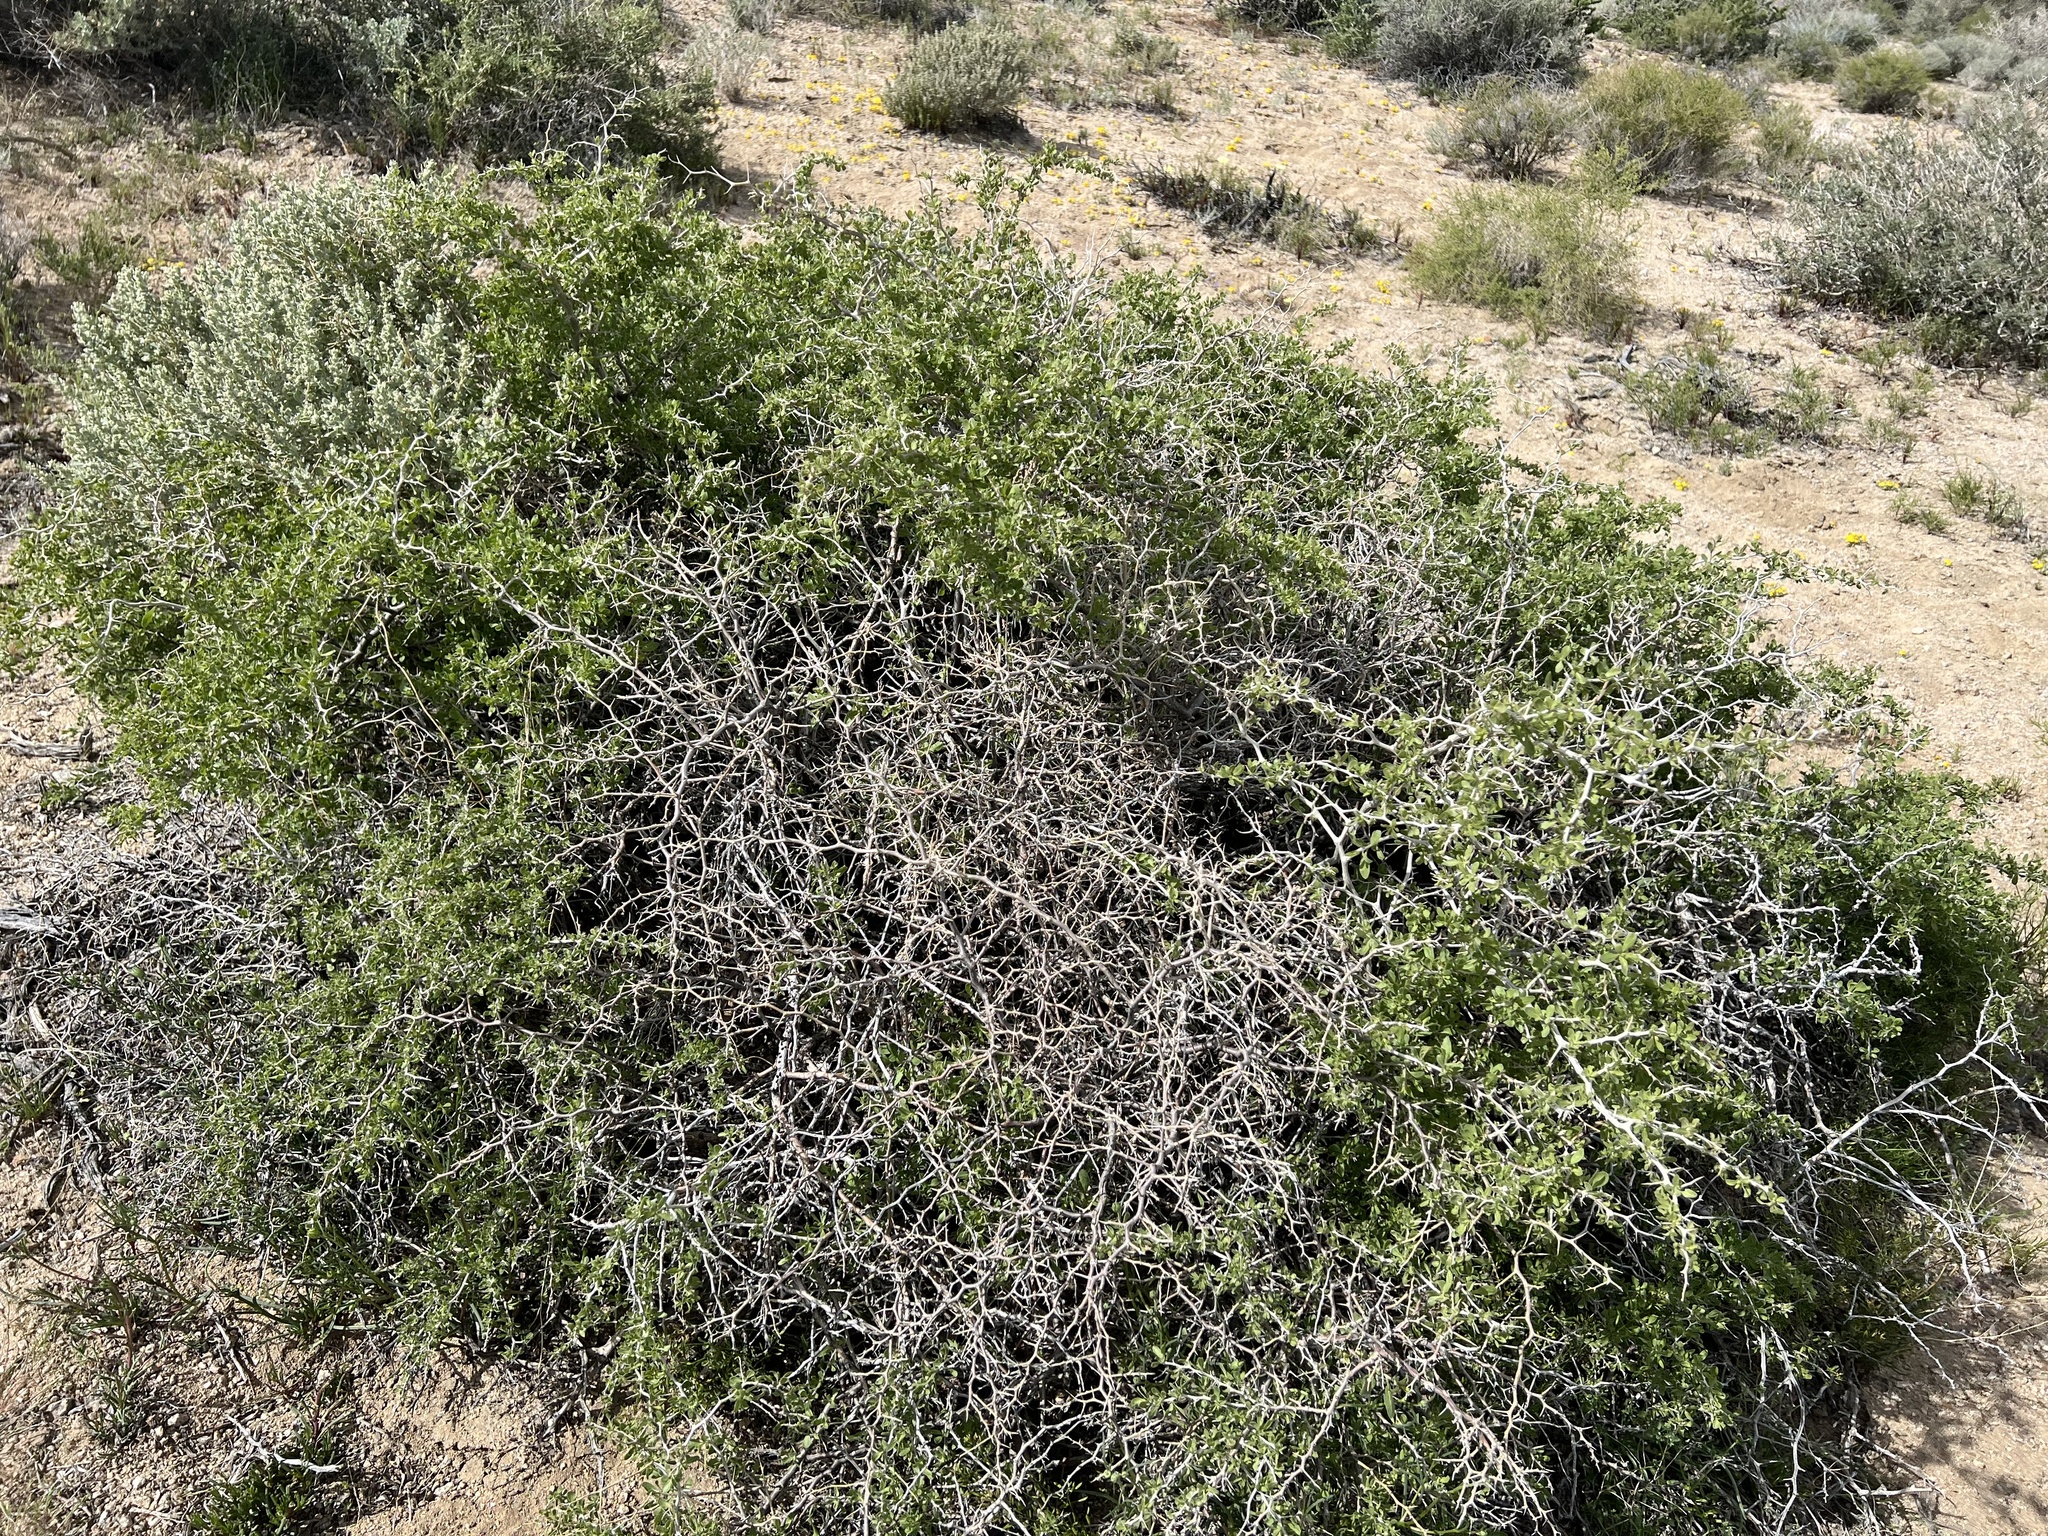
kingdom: Plantae
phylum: Tracheophyta
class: Magnoliopsida
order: Solanales
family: Solanaceae
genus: Lycium
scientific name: Lycium cooperi
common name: Peachthorn
